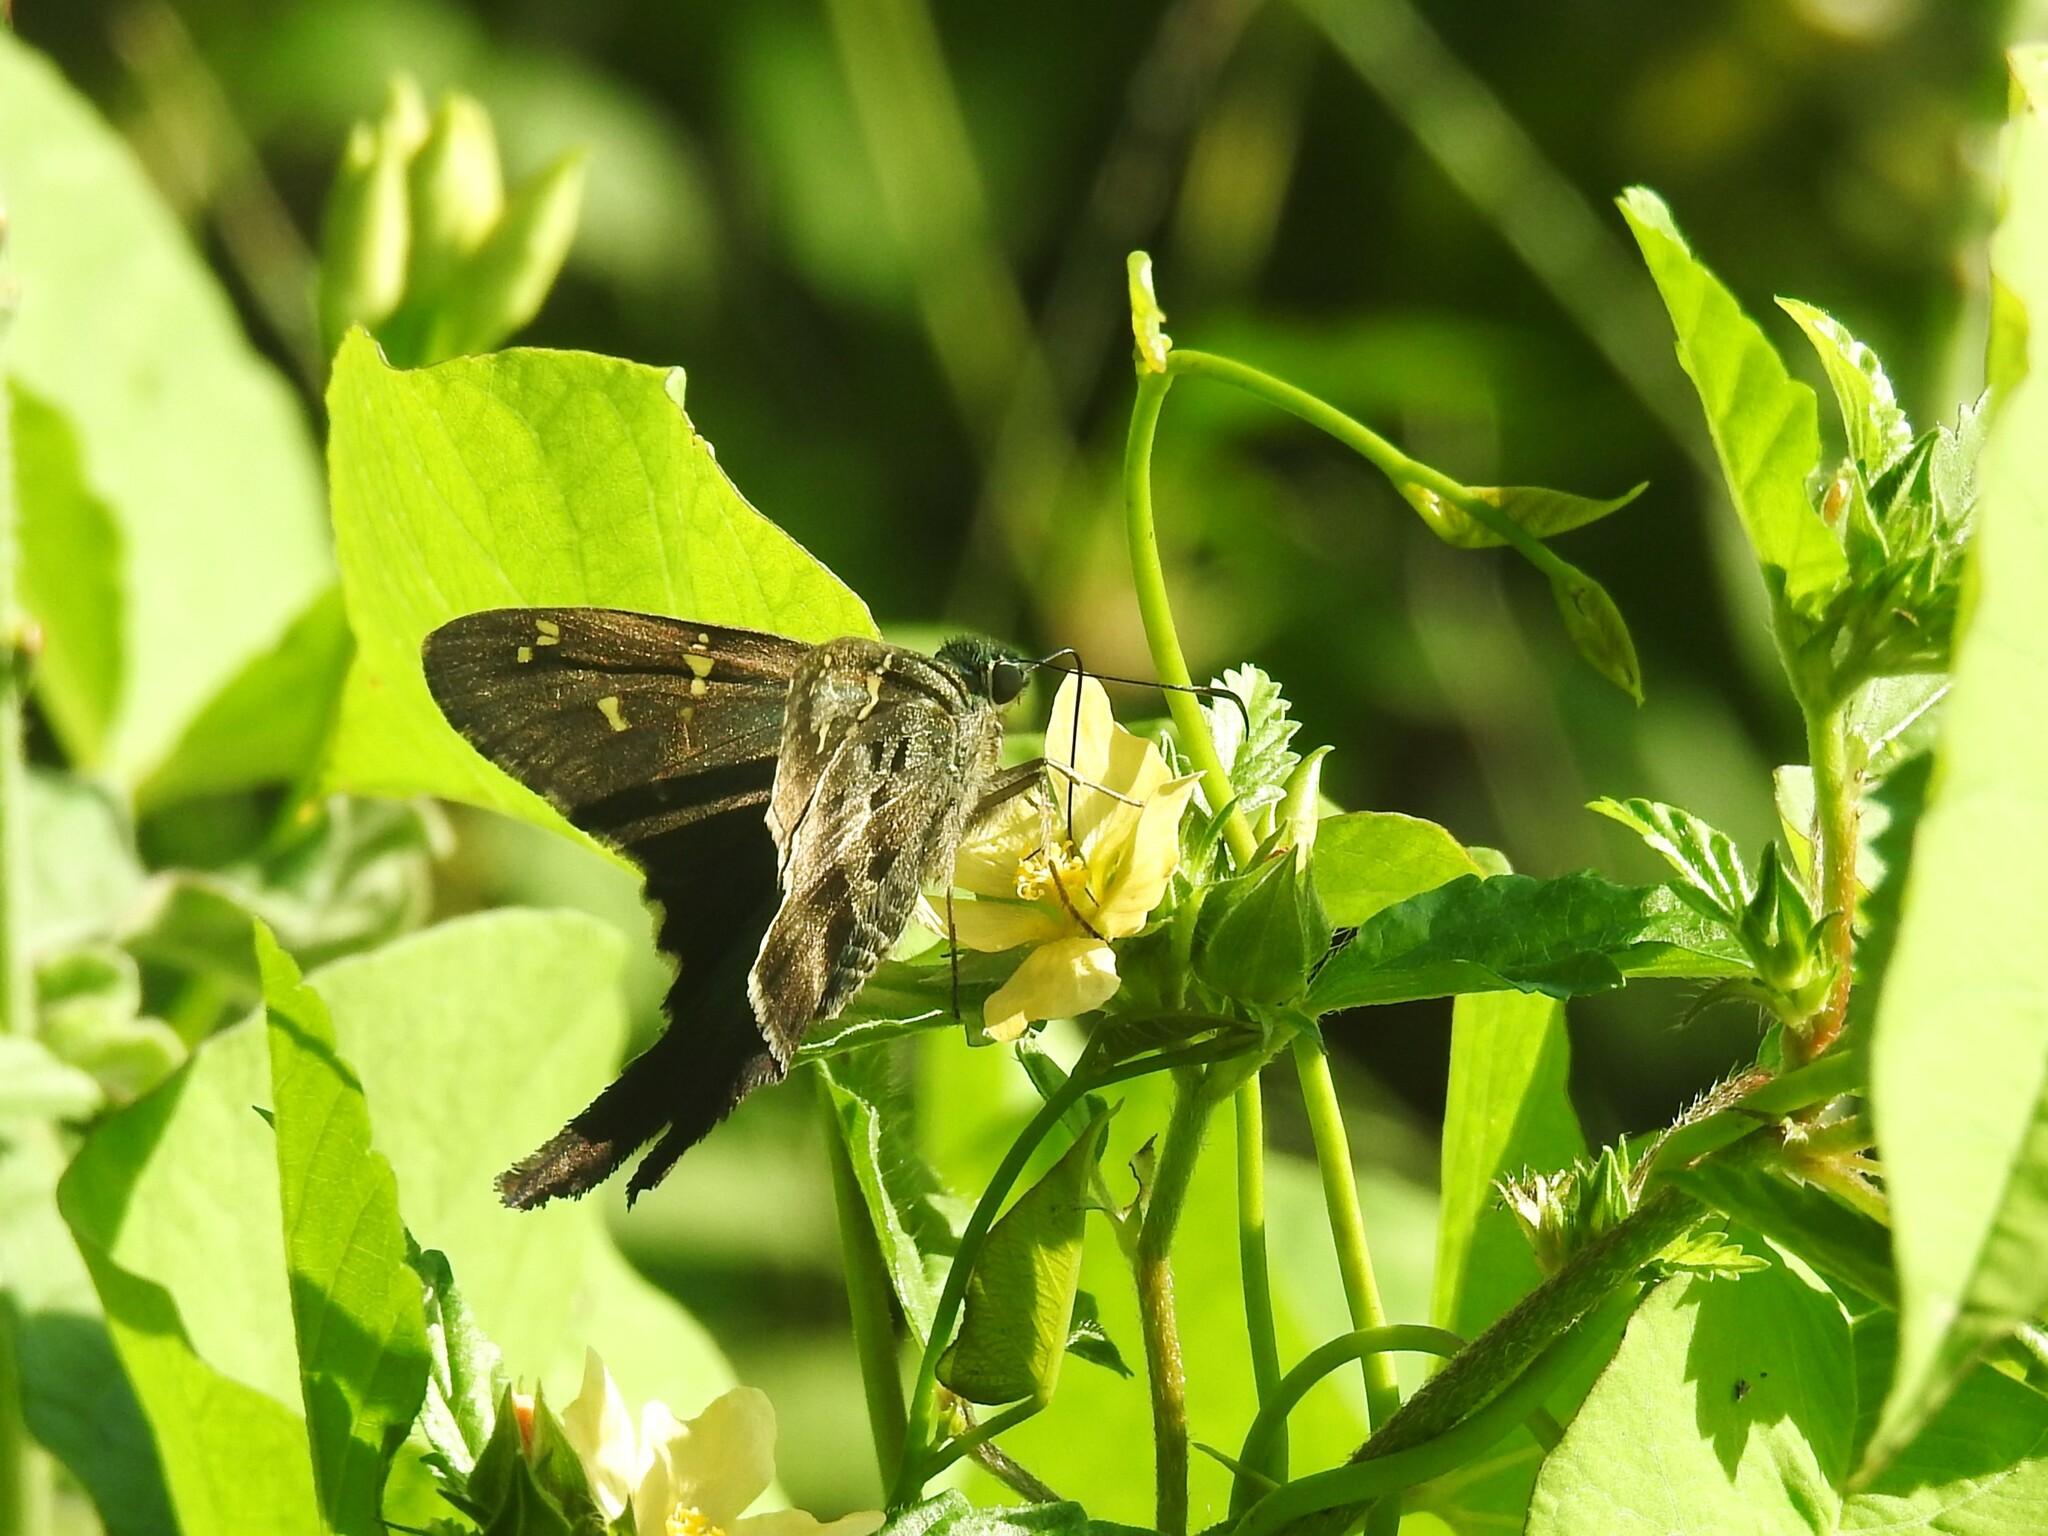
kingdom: Animalia
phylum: Arthropoda
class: Insecta
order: Lepidoptera
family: Hesperiidae
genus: Urbanus
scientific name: Urbanus proteus
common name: Long-tailed skipper
